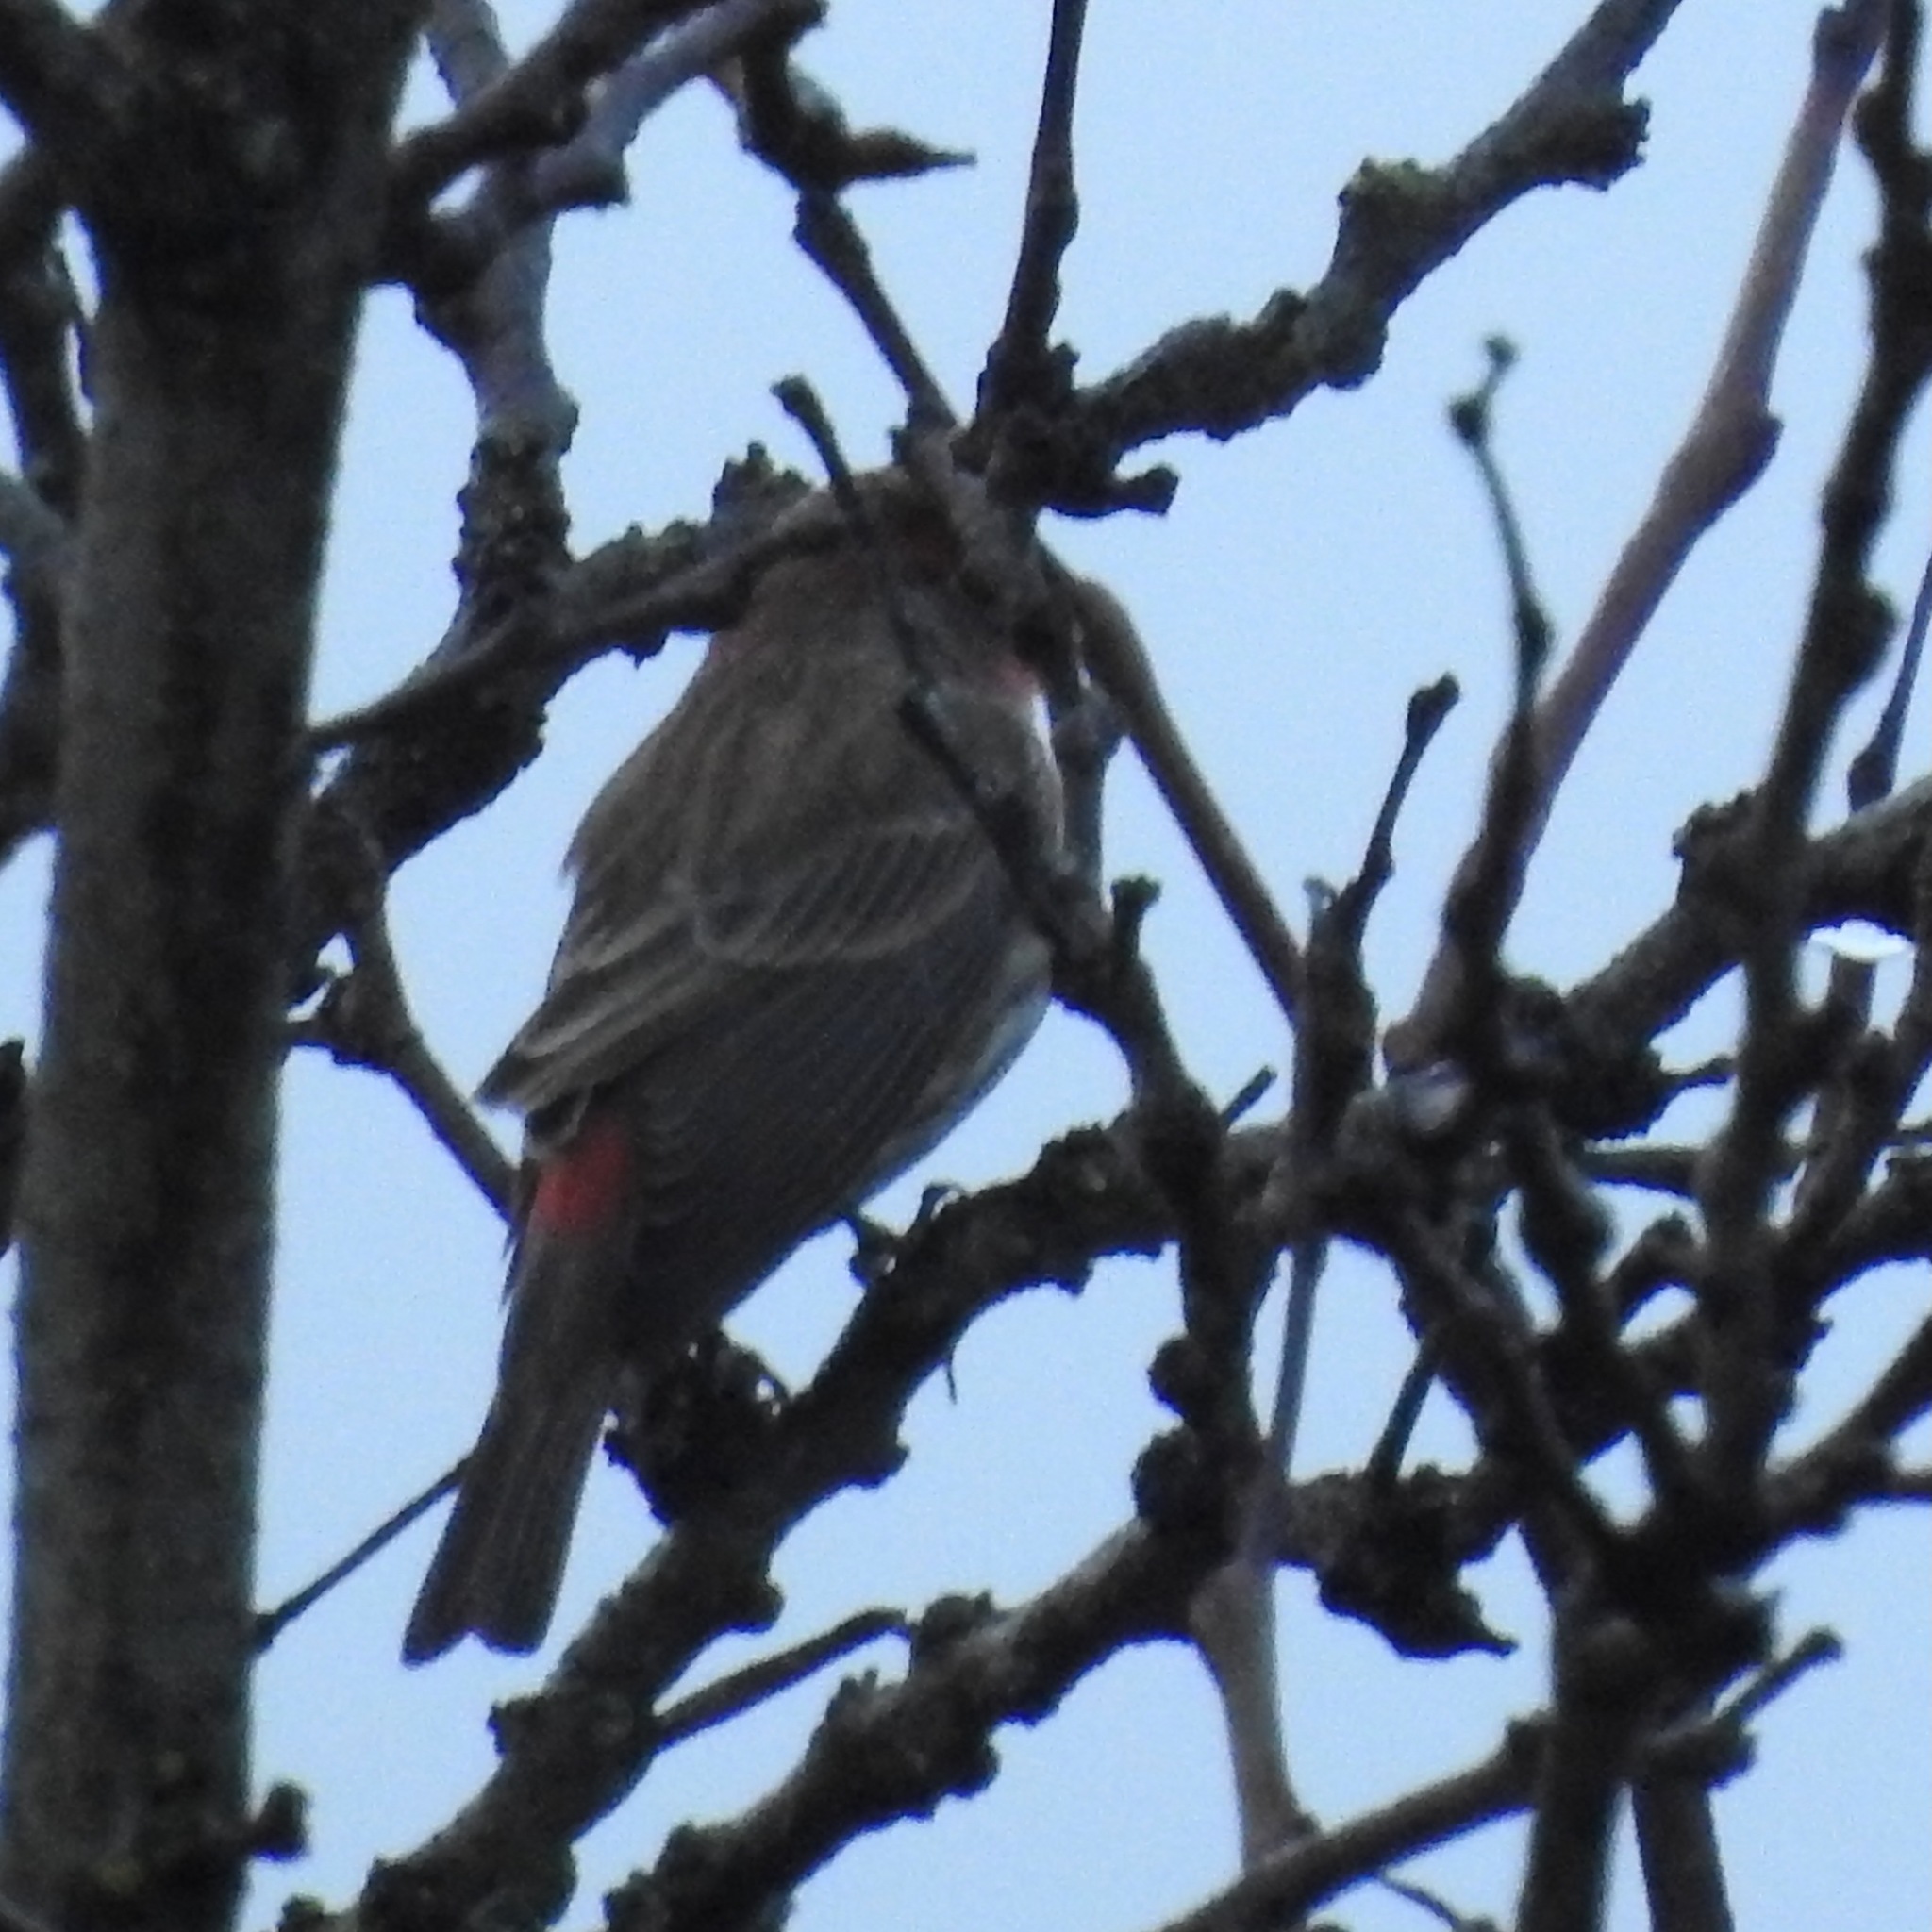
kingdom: Animalia
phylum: Chordata
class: Aves
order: Passeriformes
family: Fringillidae
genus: Haemorhous
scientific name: Haemorhous mexicanus
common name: House finch
